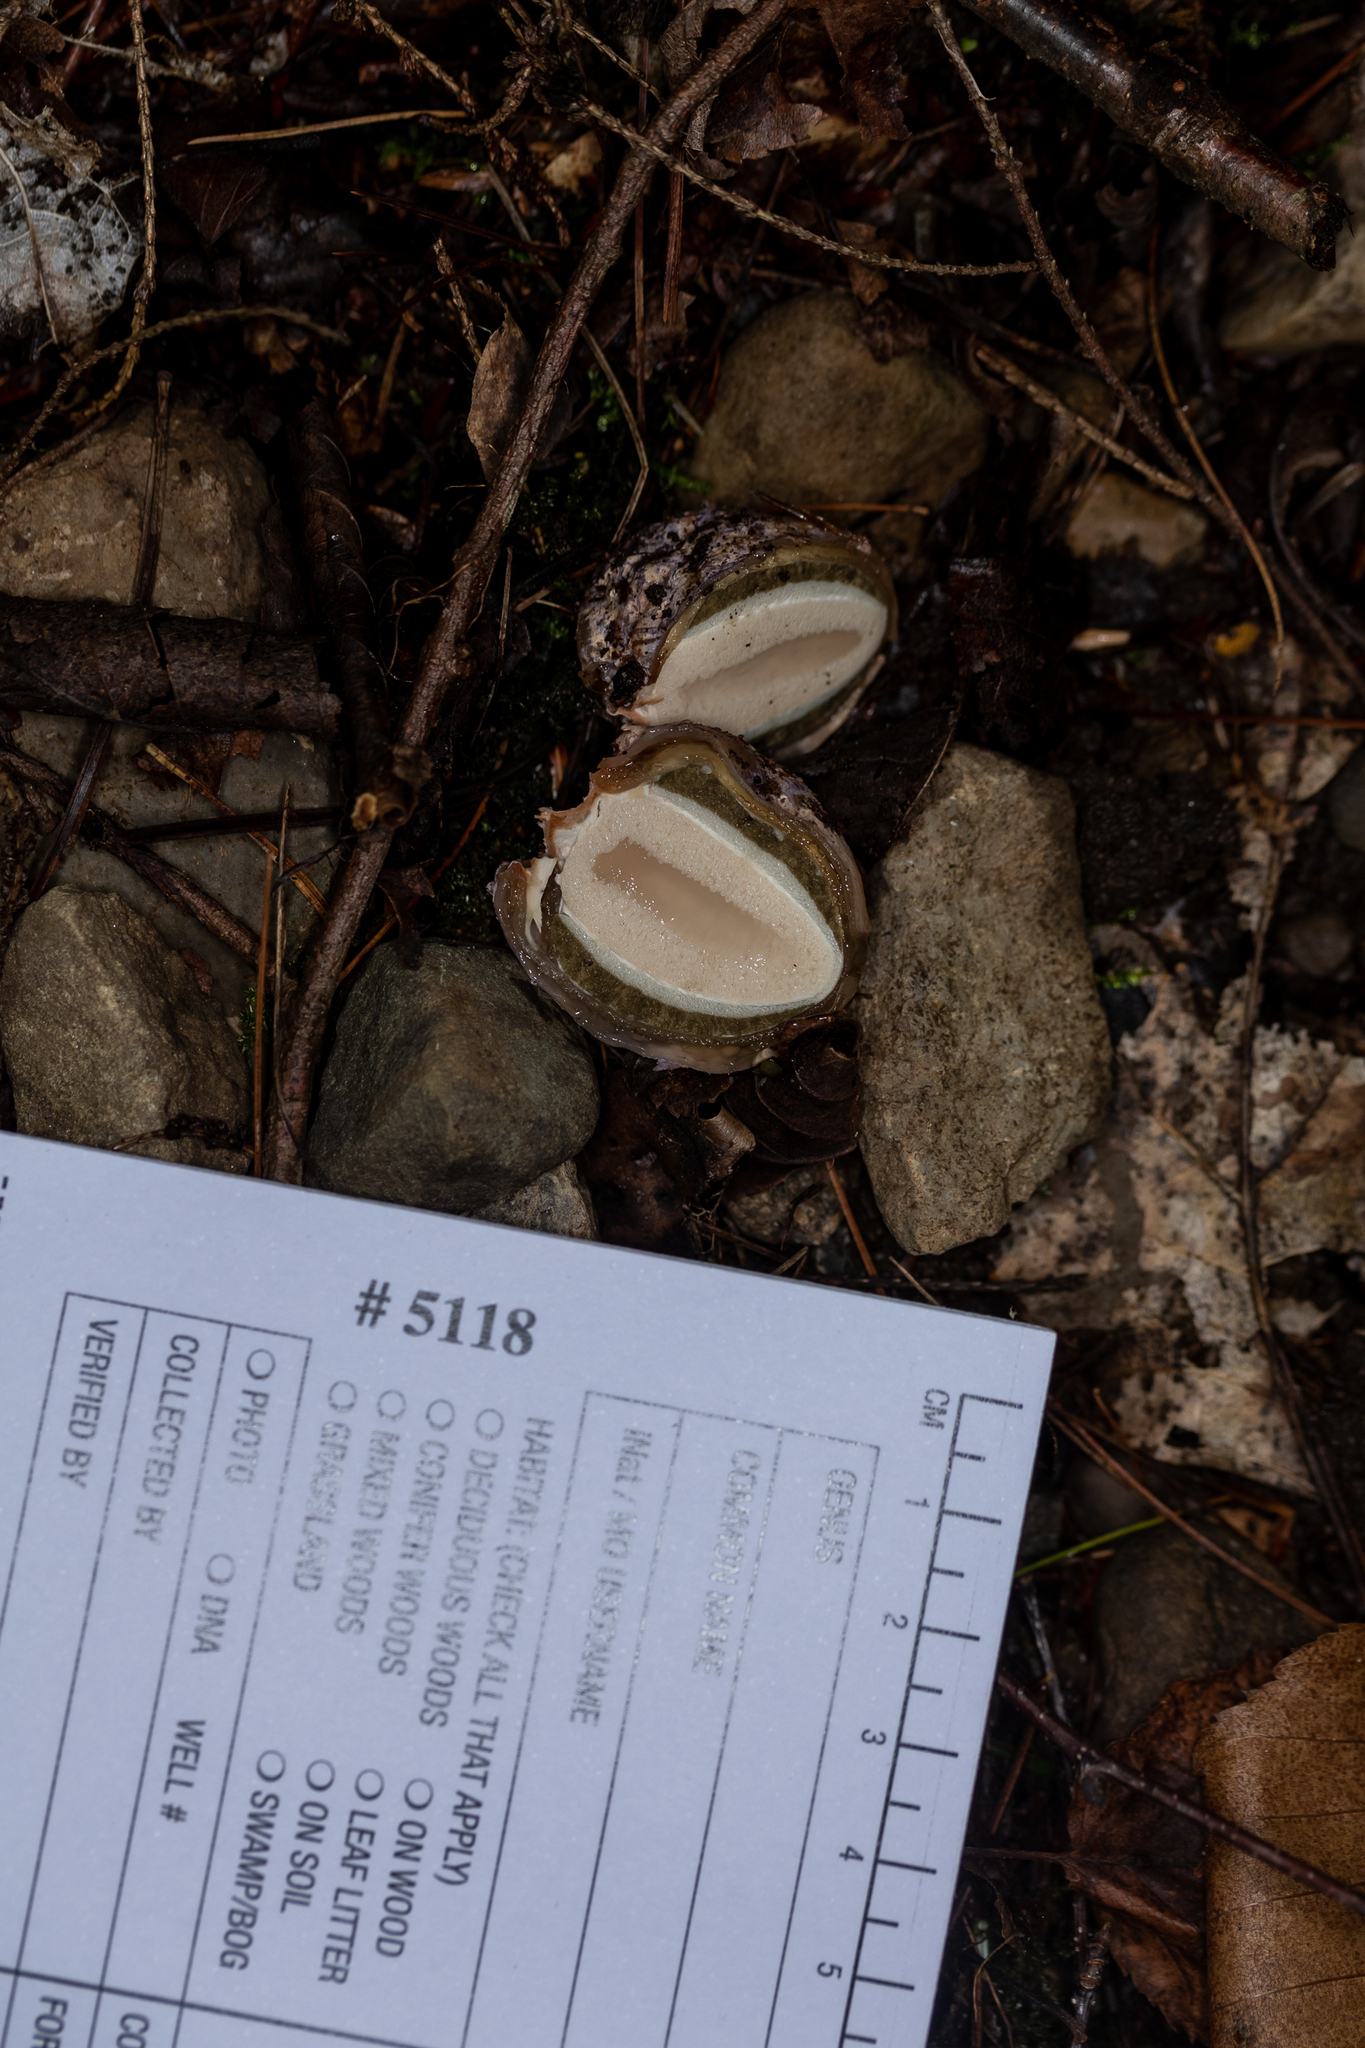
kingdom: Fungi
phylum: Basidiomycota
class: Agaricomycetes
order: Phallales
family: Phallaceae
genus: Phallus
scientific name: Phallus ravenelii
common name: Ravenel's stinkhorn
